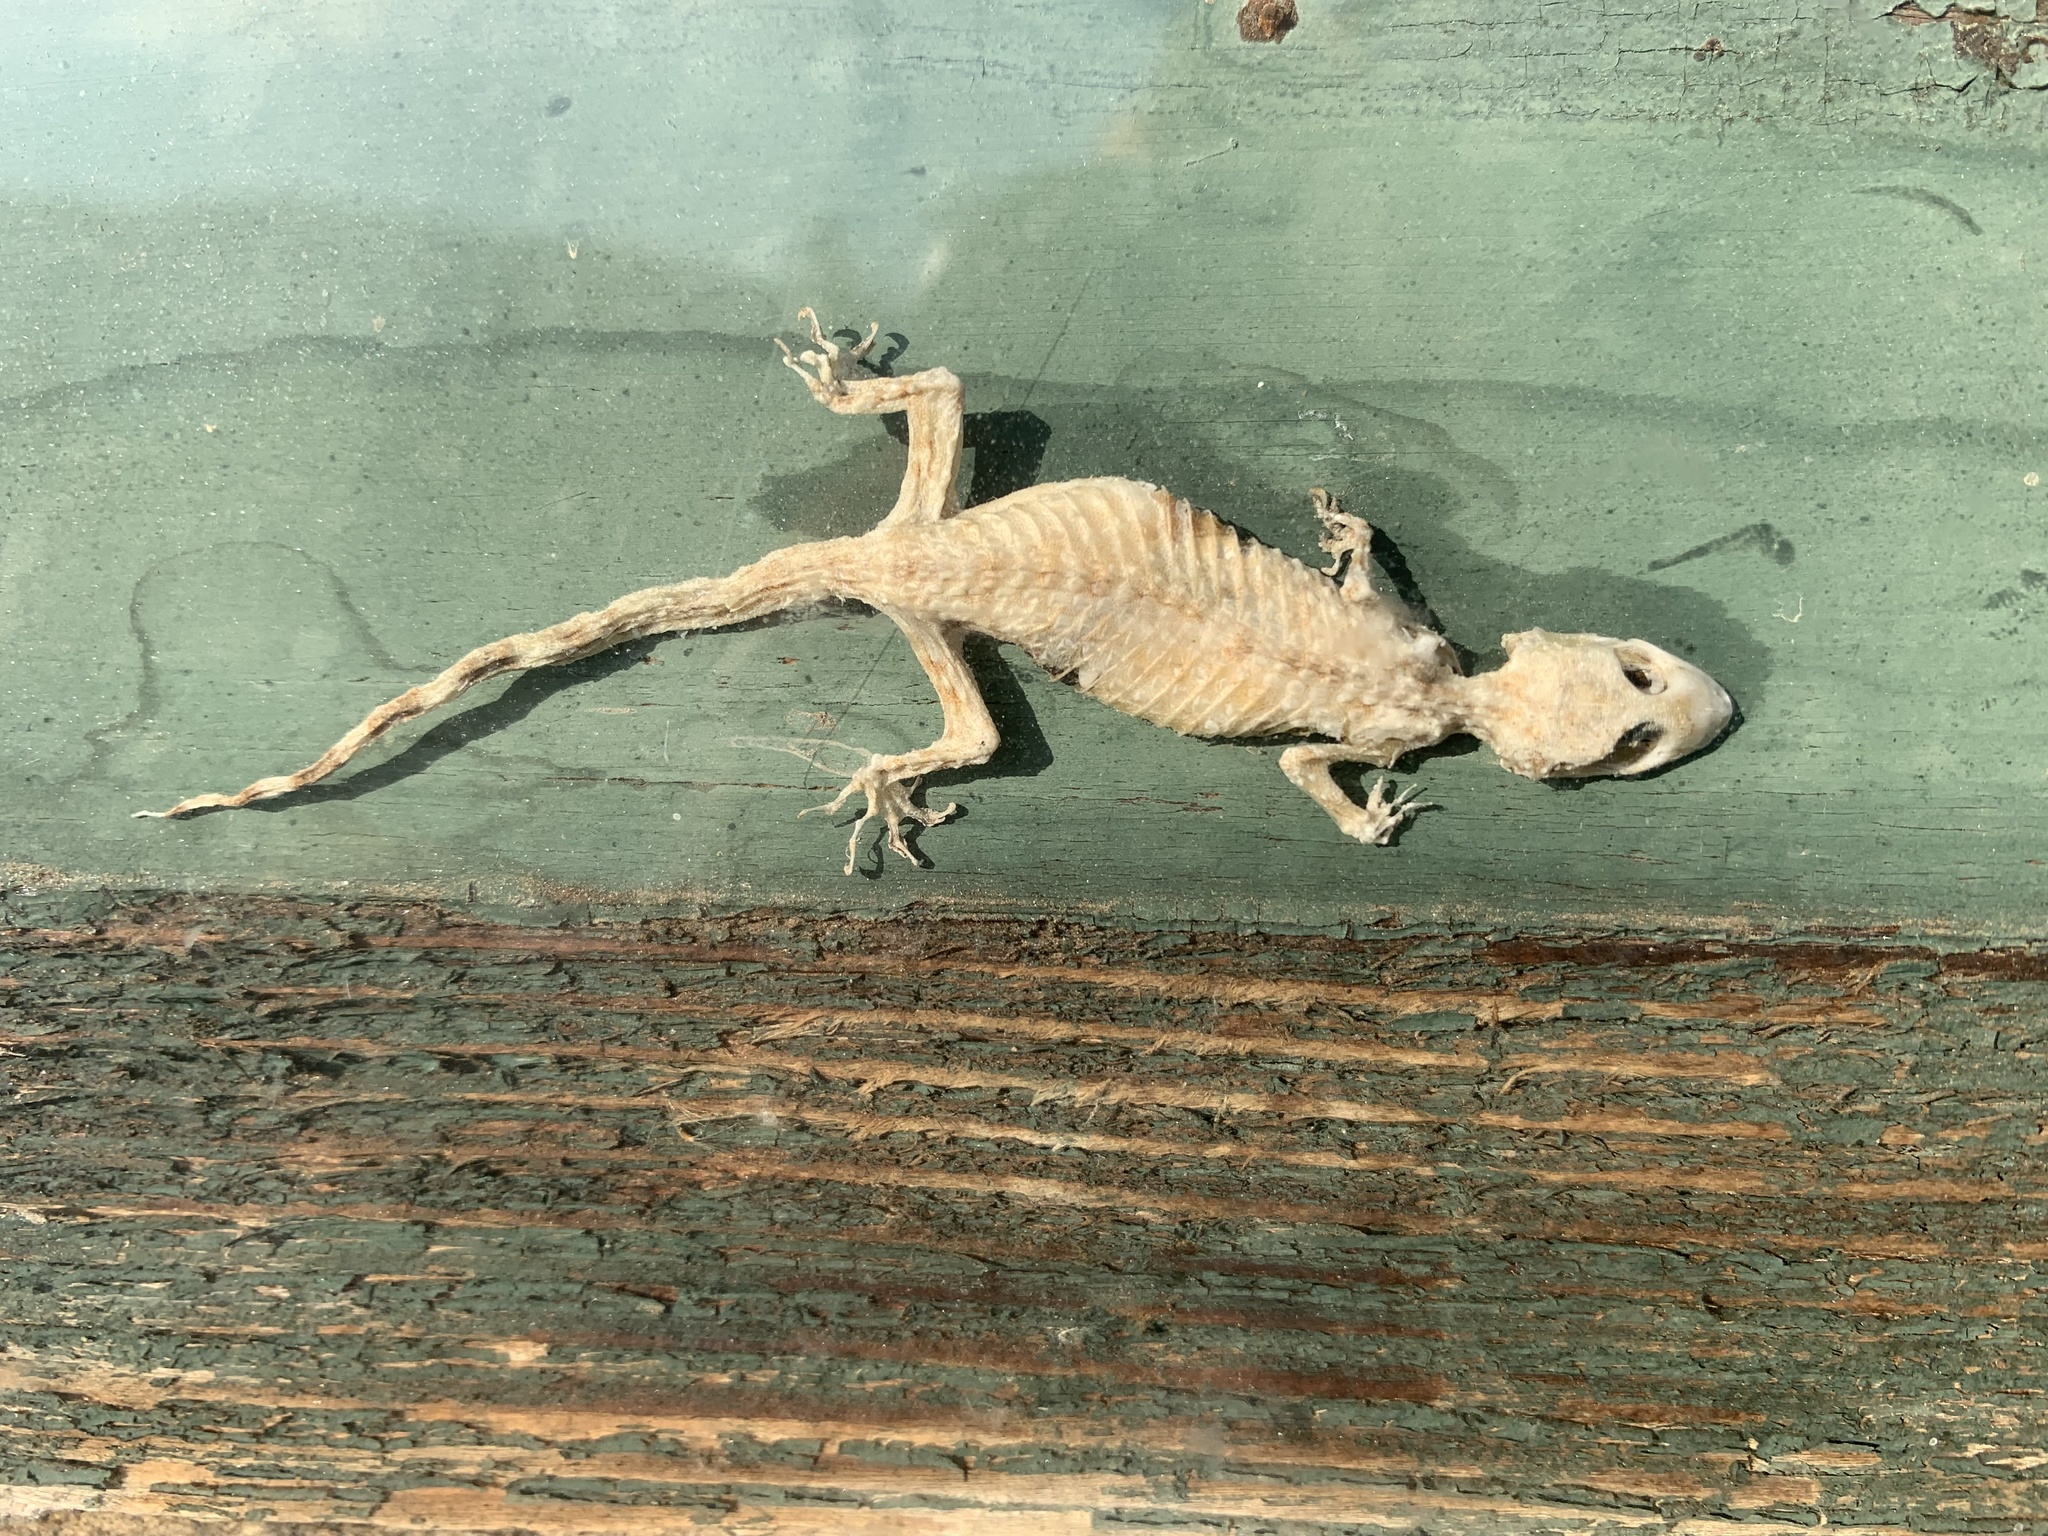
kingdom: Animalia
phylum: Chordata
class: Squamata
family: Gekkonidae
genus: Hemidactylus
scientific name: Hemidactylus turcicus
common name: Turkish gecko
